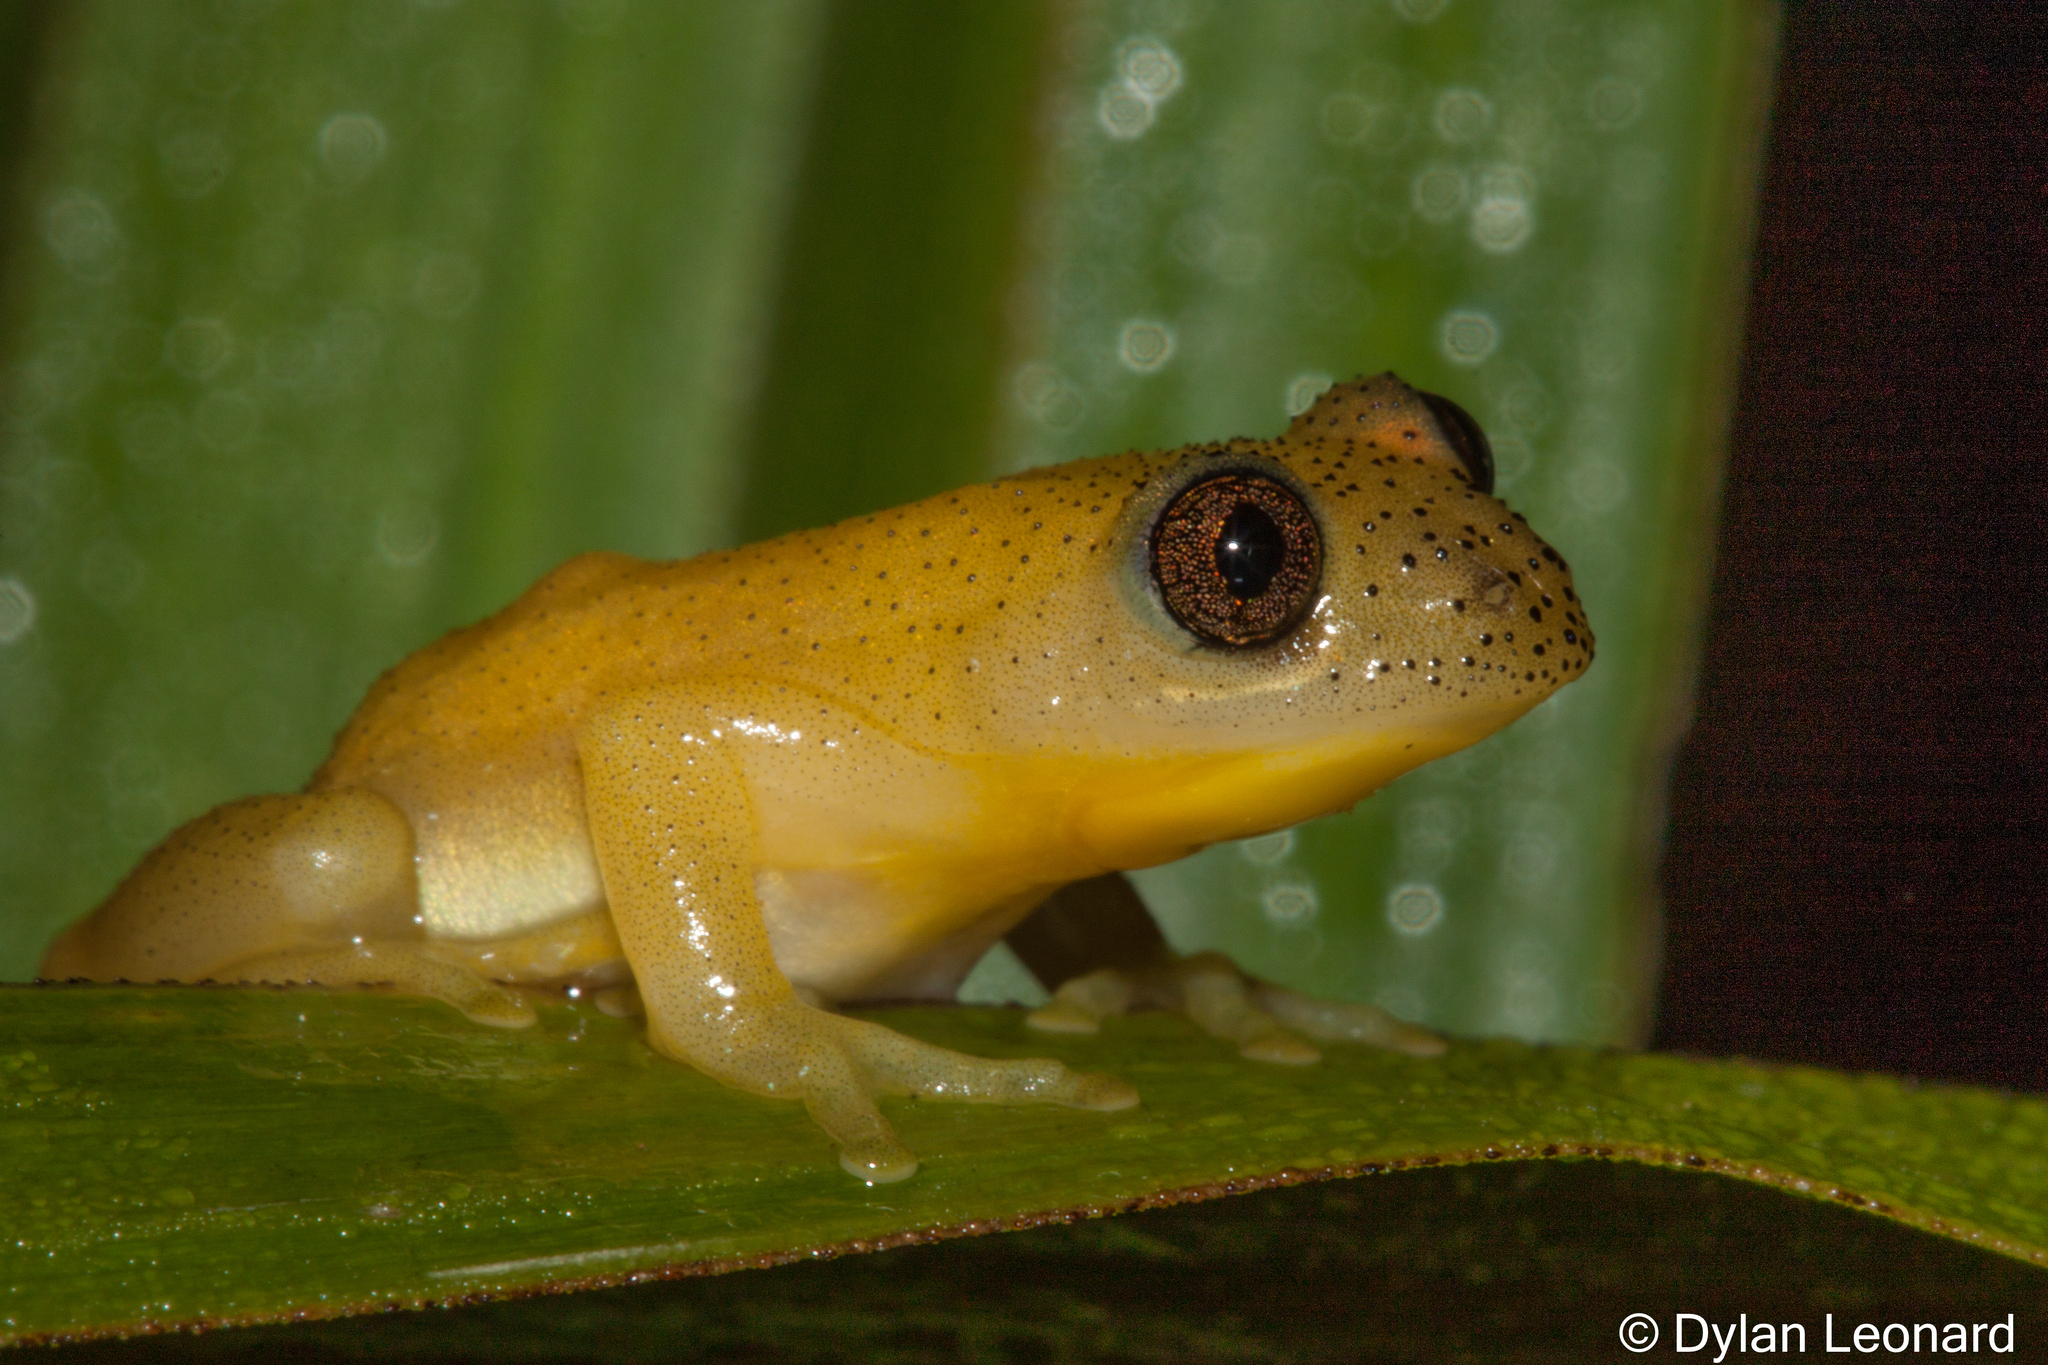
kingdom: Animalia
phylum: Chordata
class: Amphibia
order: Anura
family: Hyperoliidae
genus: Afrixalus
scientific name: Afrixalus spinifrons
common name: Natal spiny reed frog
